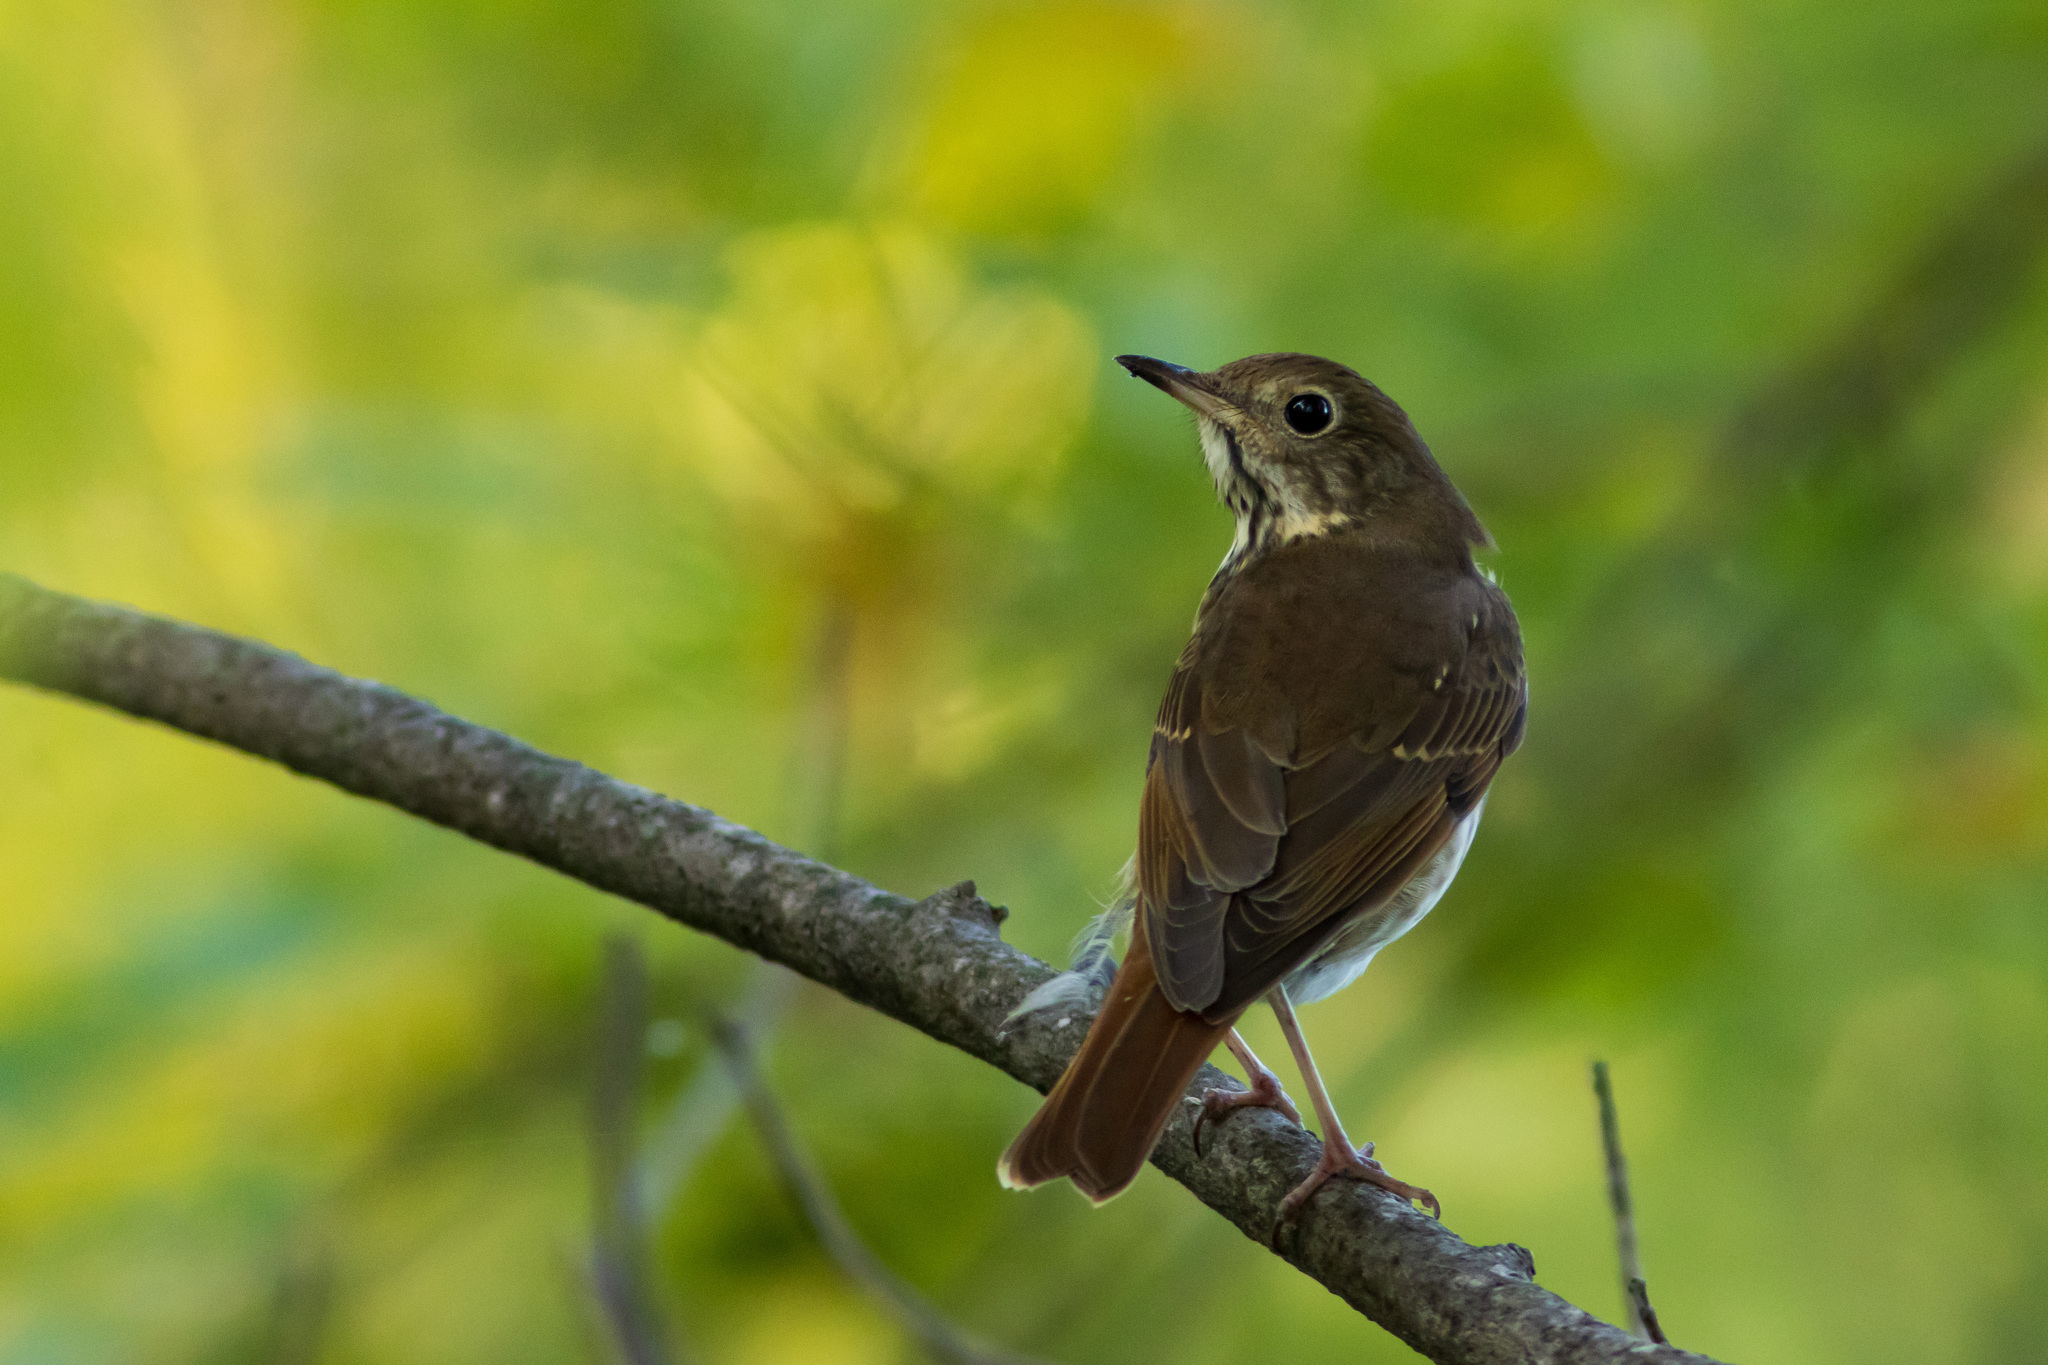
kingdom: Animalia
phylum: Chordata
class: Aves
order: Passeriformes
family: Turdidae
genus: Catharus
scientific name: Catharus guttatus
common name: Hermit thrush
